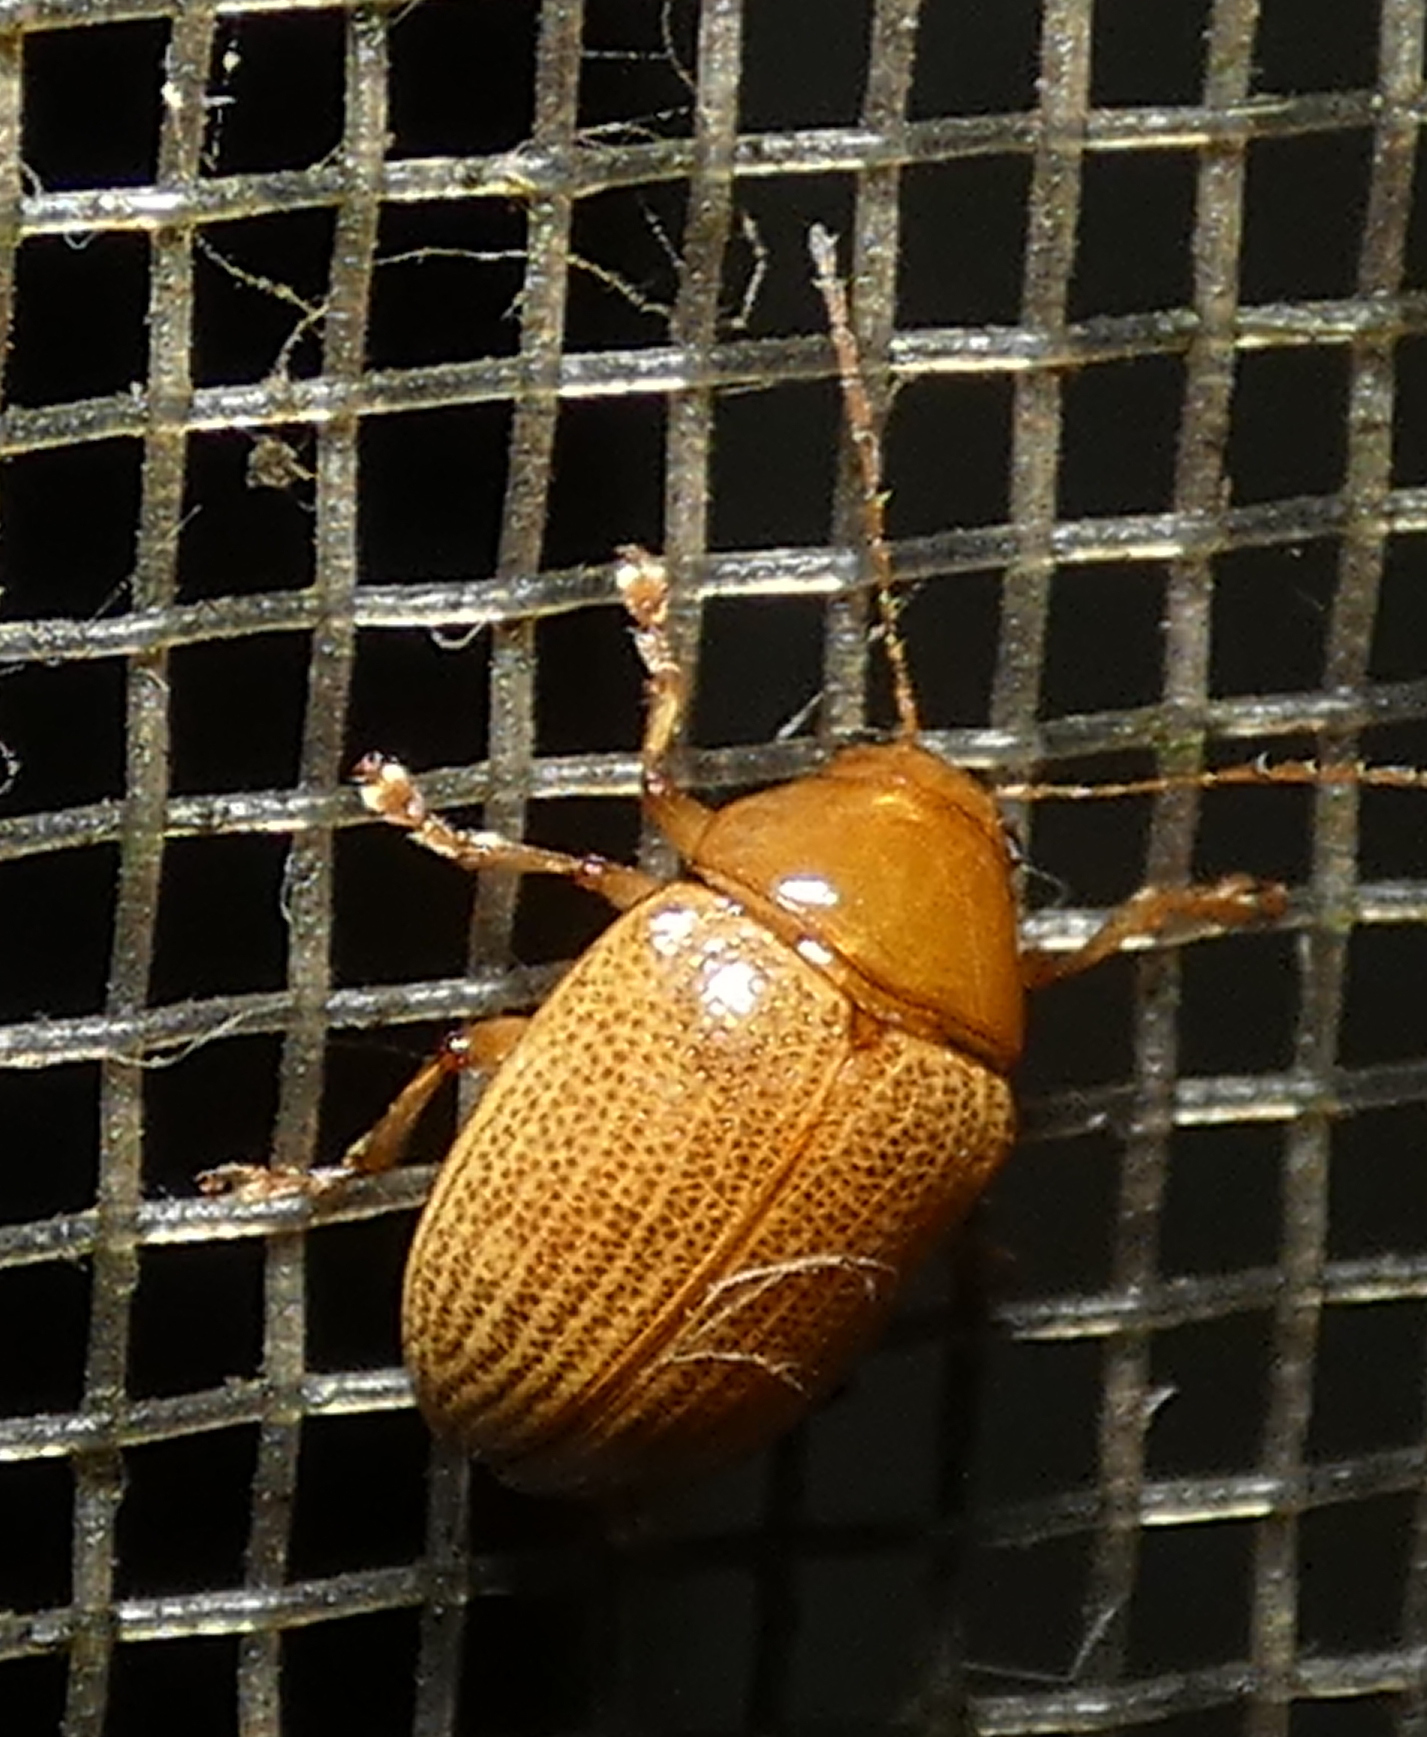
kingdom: Animalia
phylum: Arthropoda
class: Insecta
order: Coleoptera
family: Chrysomelidae
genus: Anisodera
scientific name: Anisodera ferruginea
